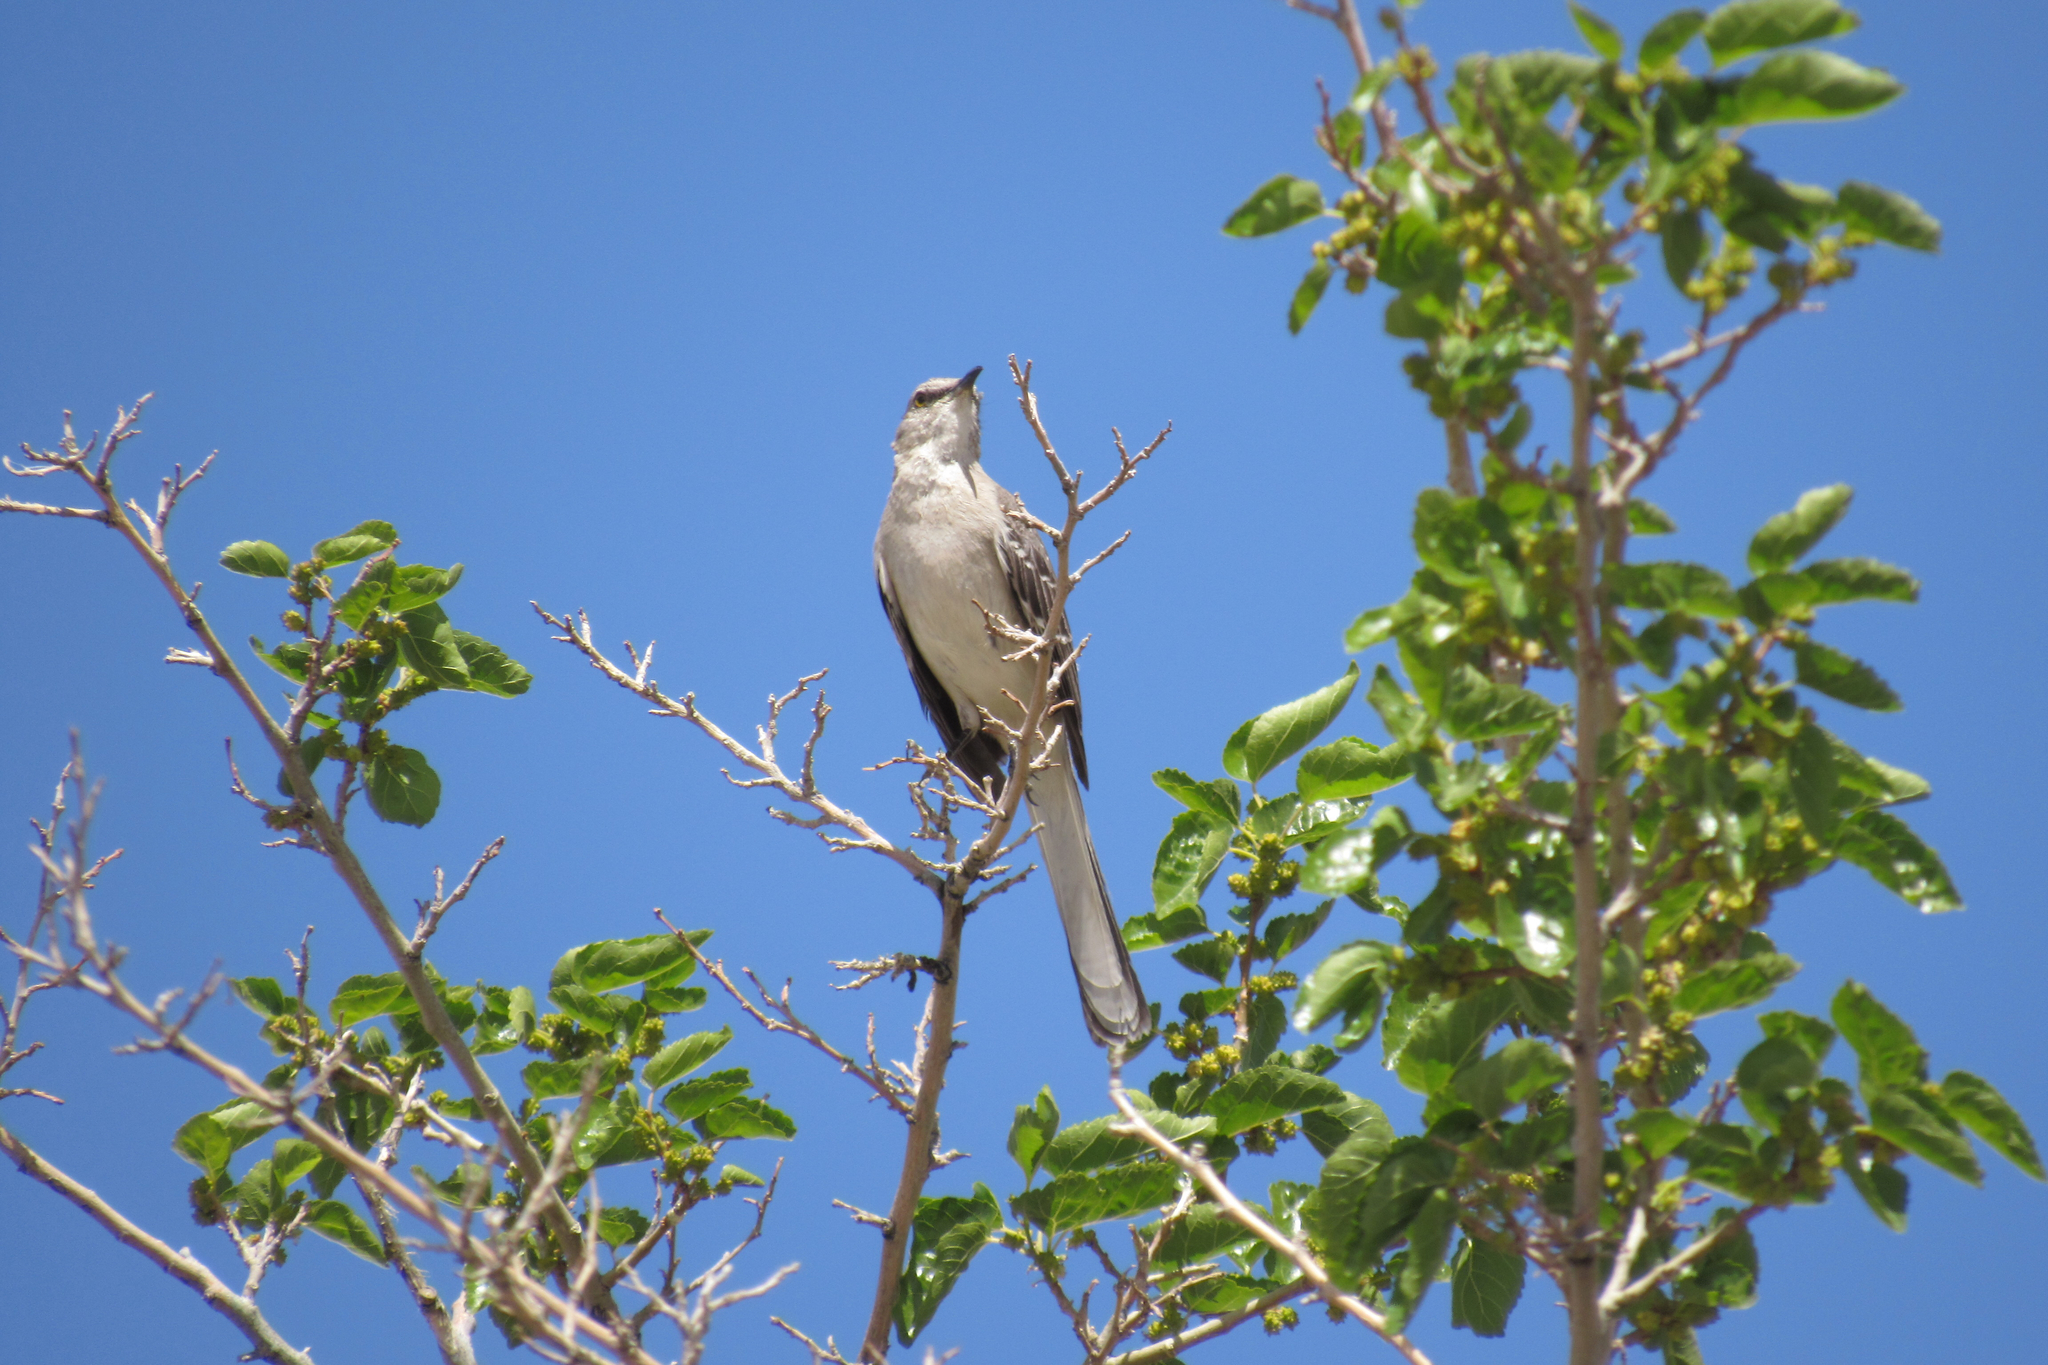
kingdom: Animalia
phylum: Chordata
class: Aves
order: Passeriformes
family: Mimidae
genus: Mimus
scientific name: Mimus polyglottos
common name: Northern mockingbird
